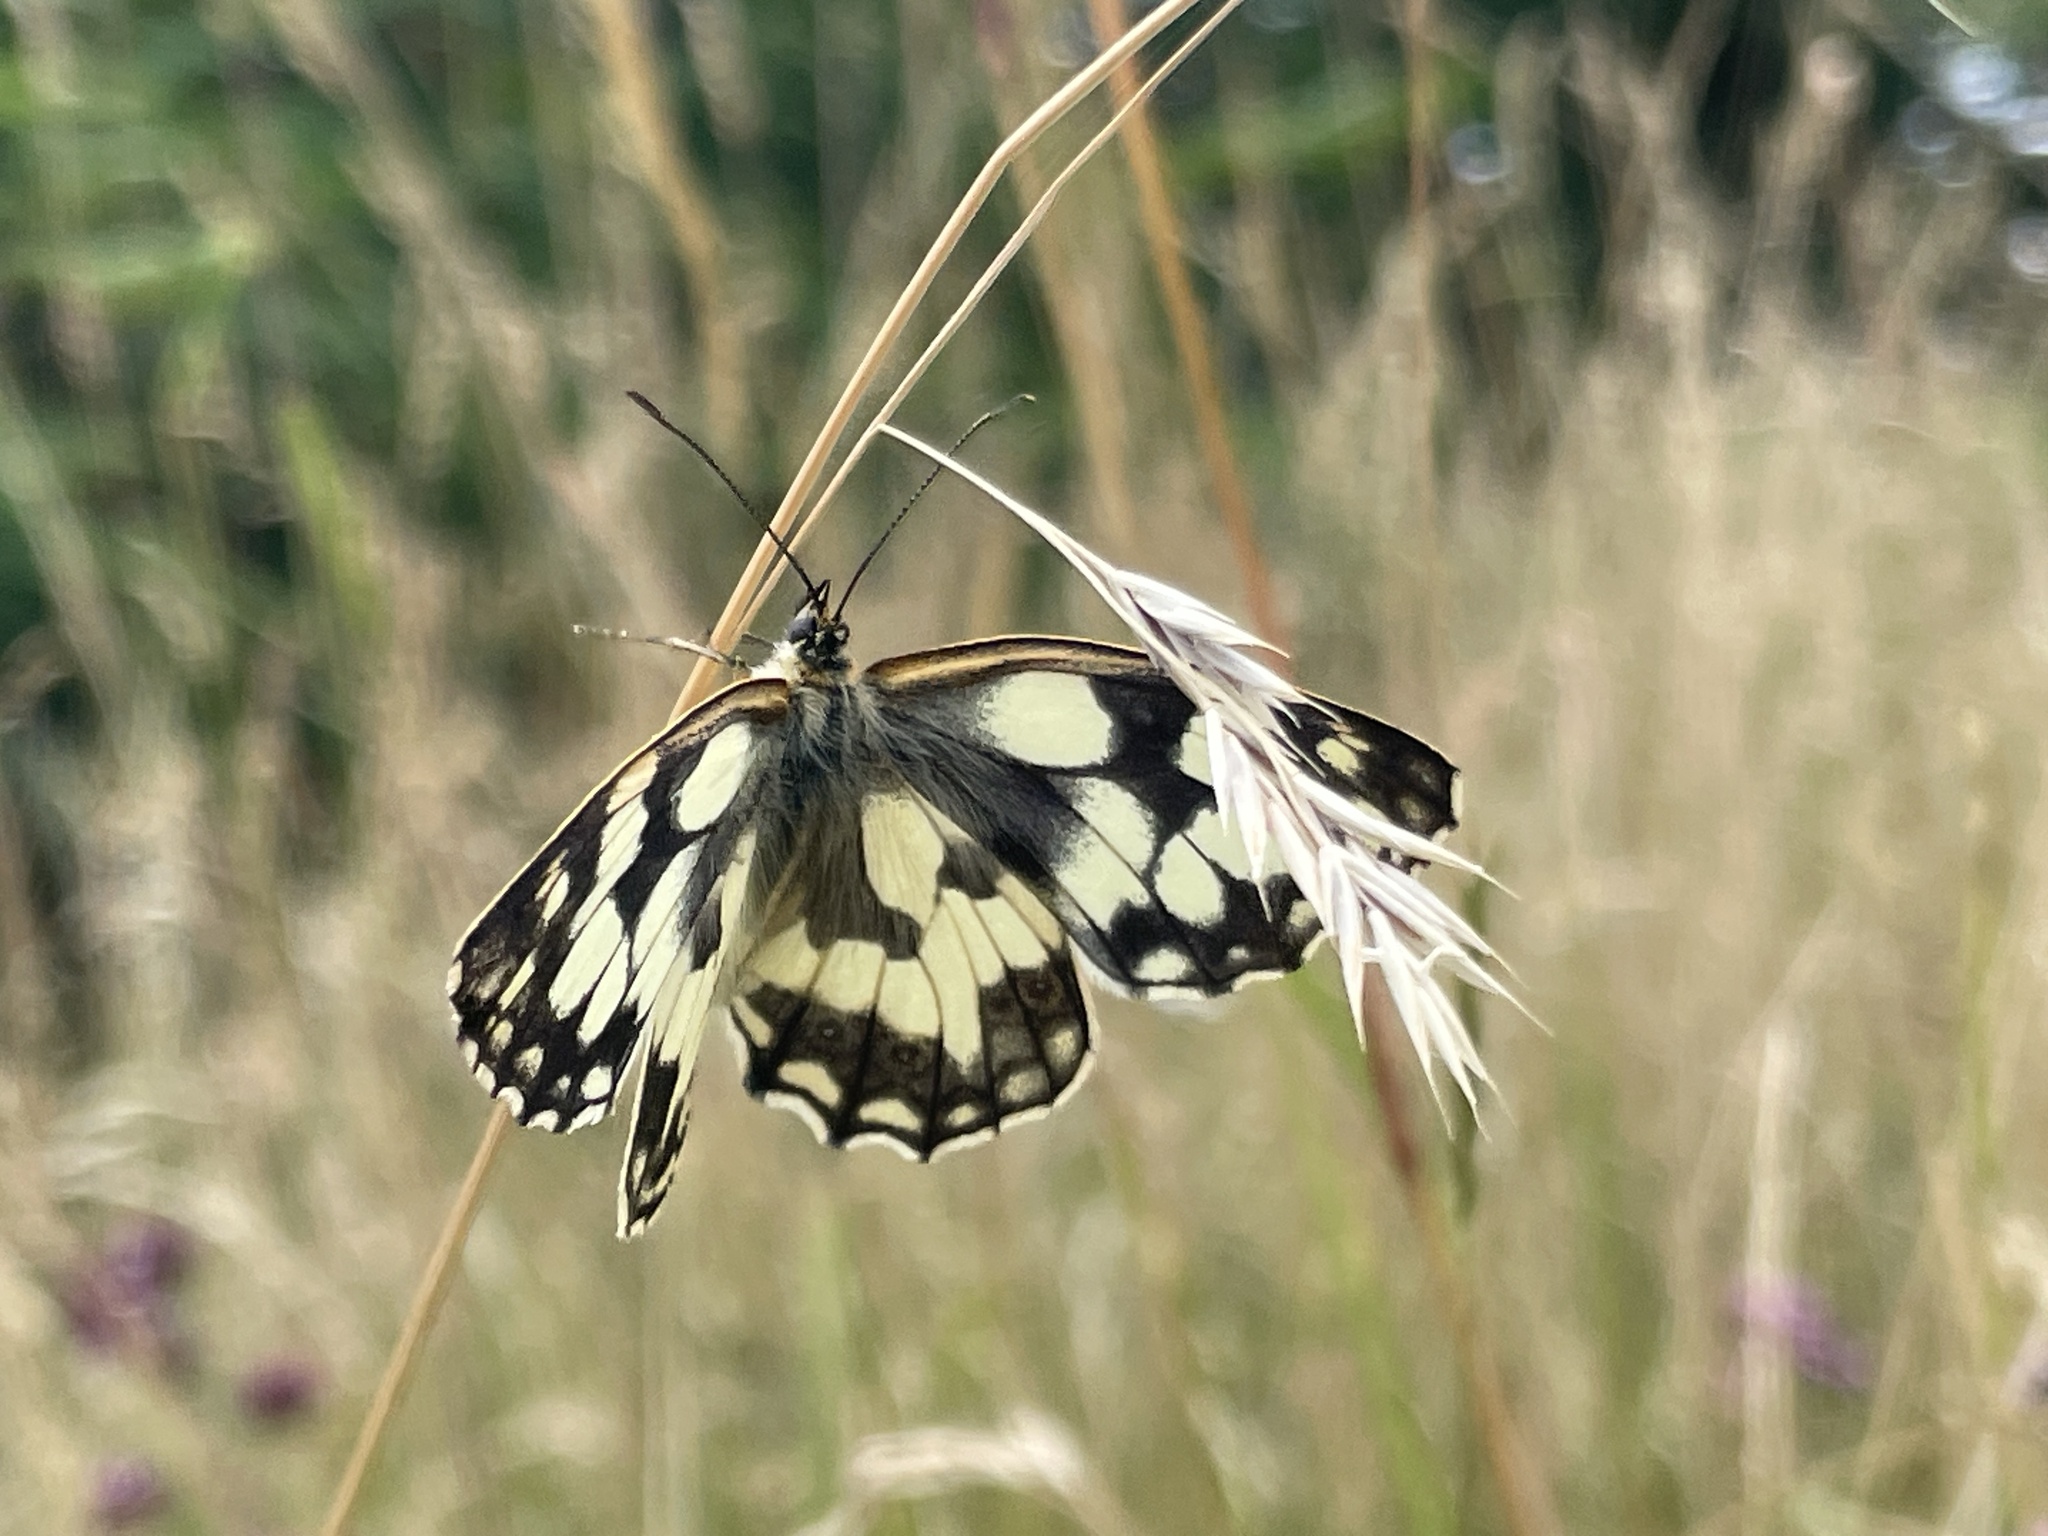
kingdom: Animalia
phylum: Arthropoda
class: Insecta
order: Lepidoptera
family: Nymphalidae
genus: Melanargia
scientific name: Melanargia galathea
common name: Marbled white
